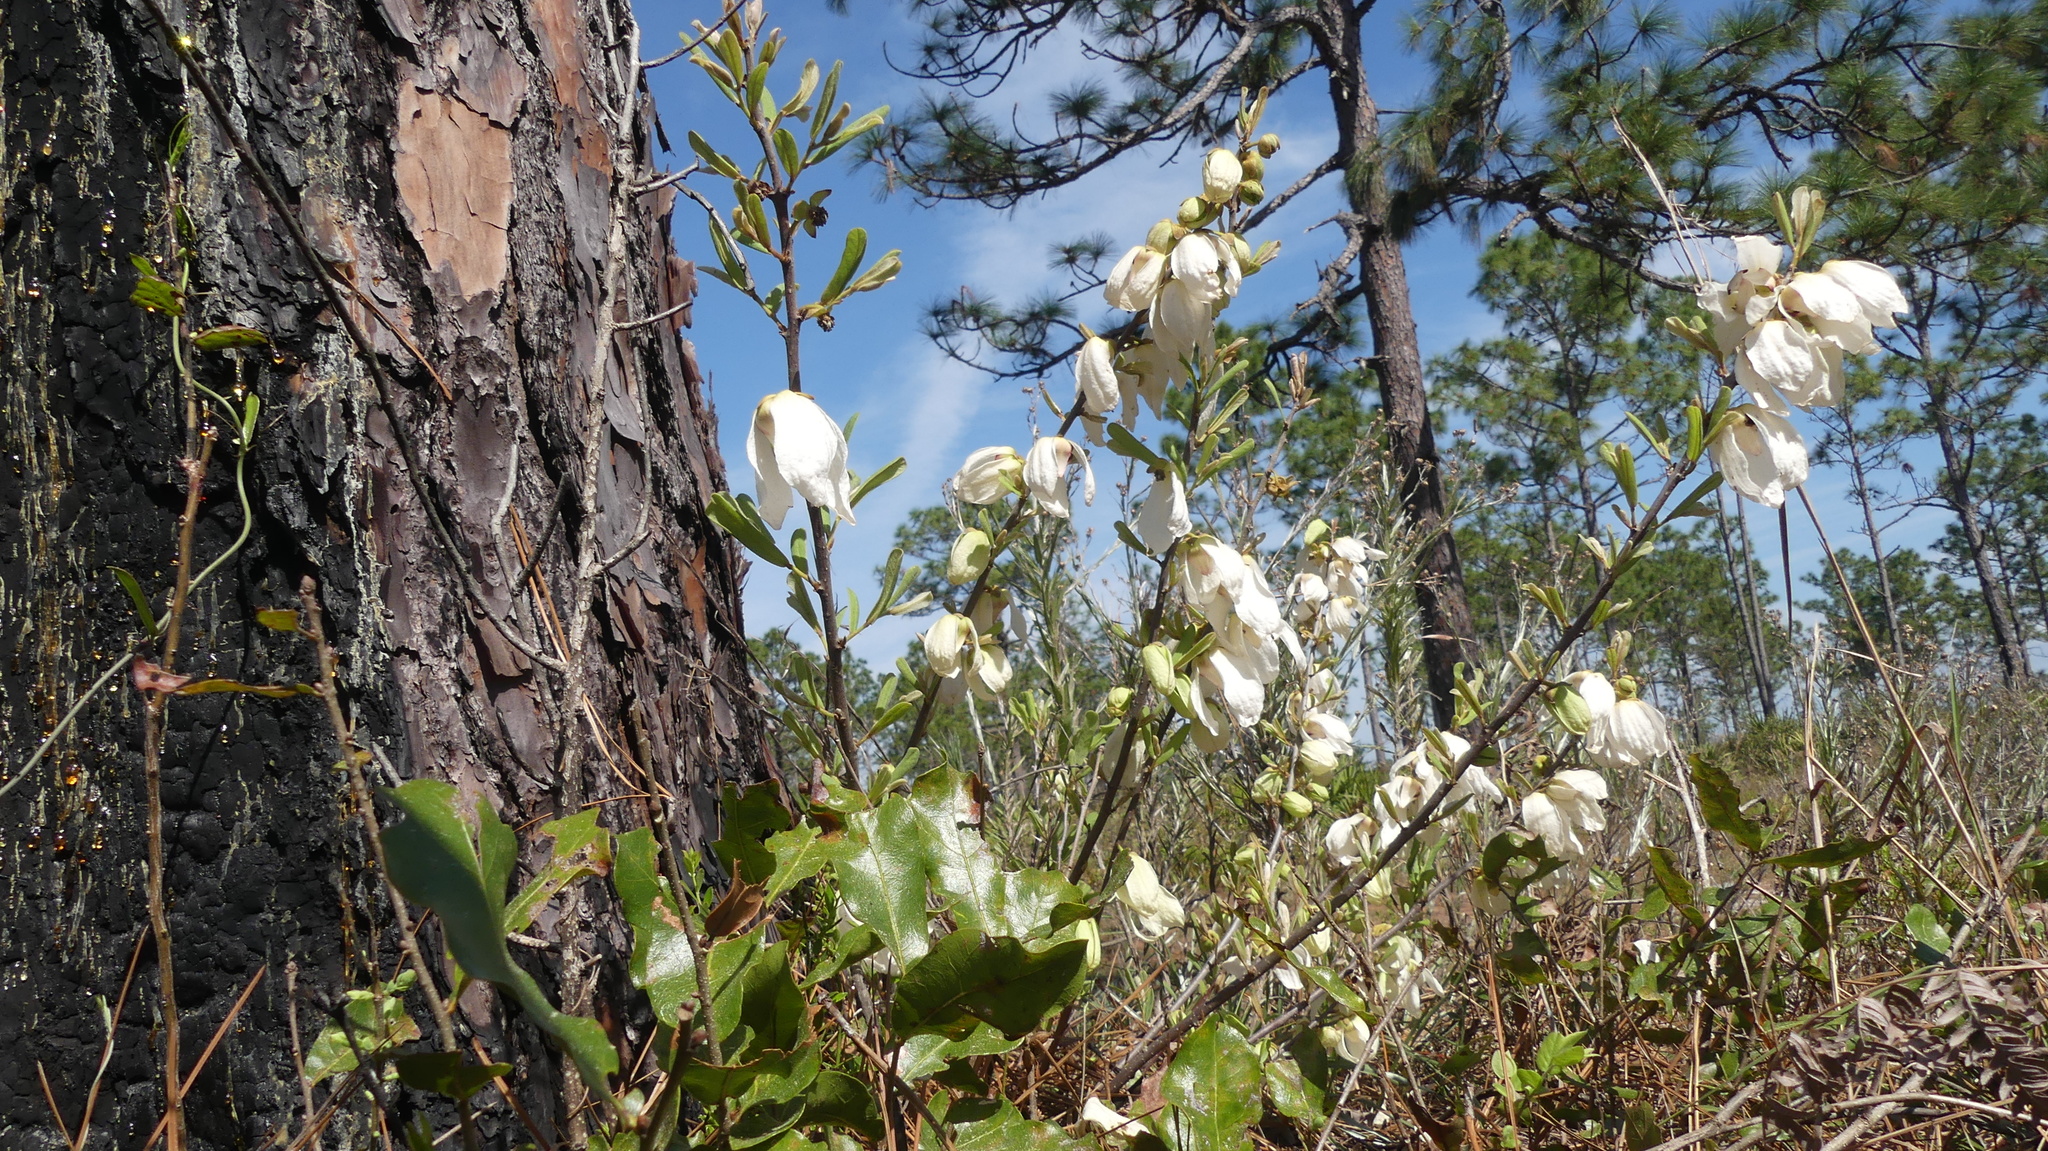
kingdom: Plantae
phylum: Tracheophyta
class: Magnoliopsida
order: Magnoliales
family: Annonaceae
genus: Asimina
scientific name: Asimina reticulata
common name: Flag pawpaw
